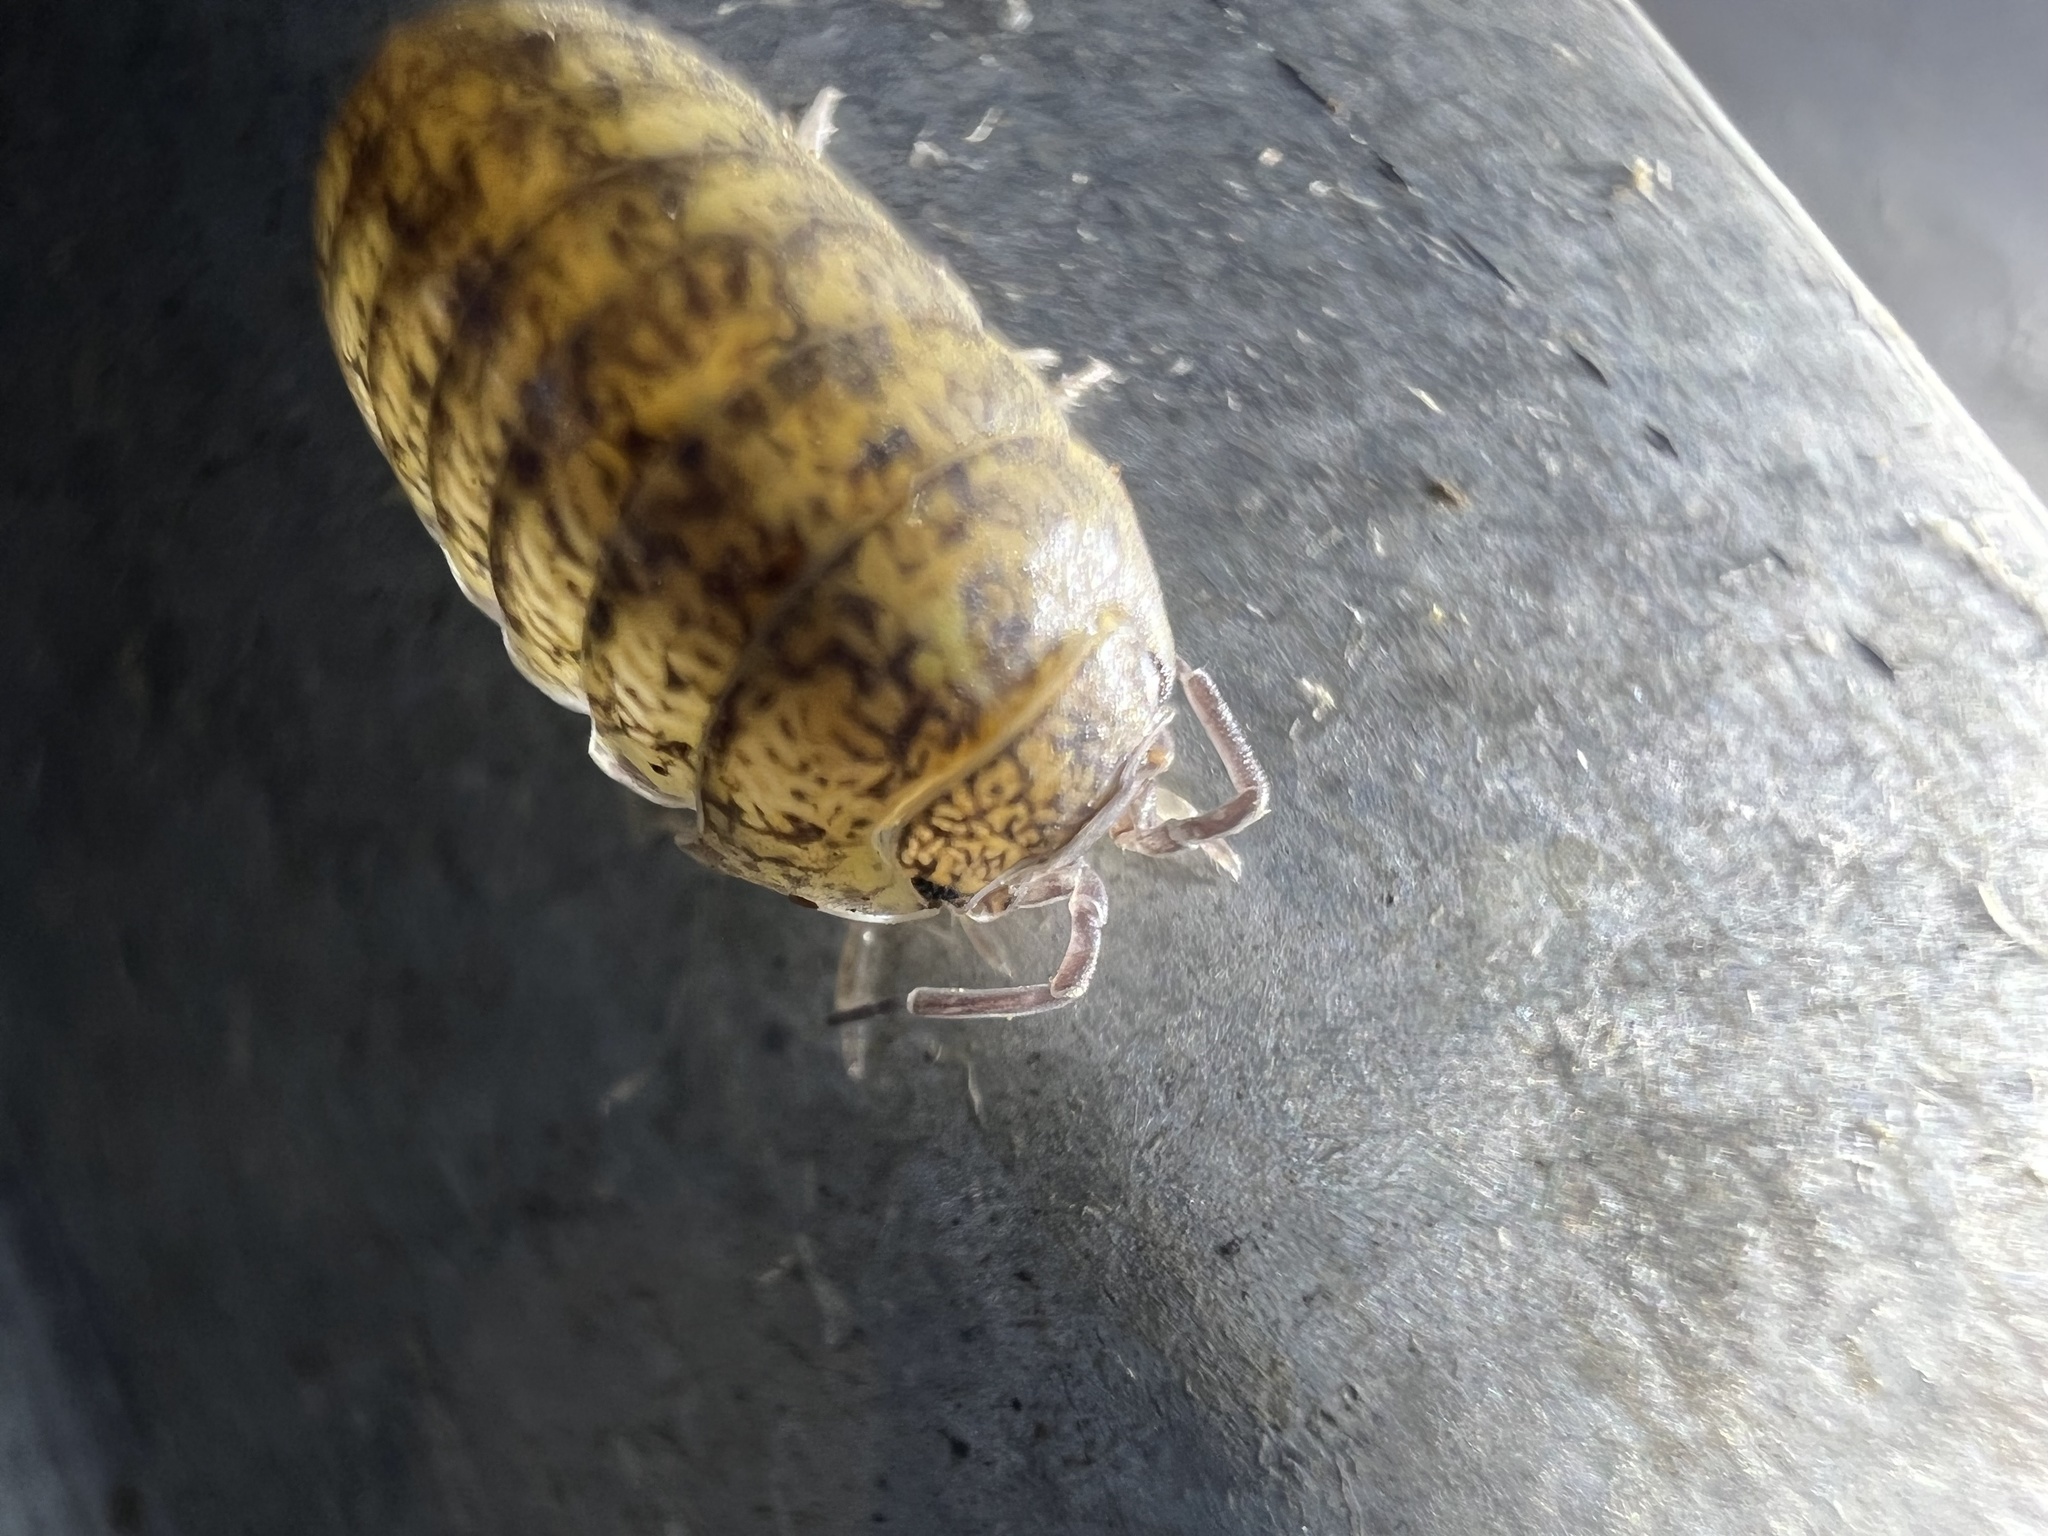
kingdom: Animalia
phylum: Arthropoda
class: Malacostraca
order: Isopoda
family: Armadillidiidae
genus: Armadillidium
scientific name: Armadillidium vulgare
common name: Common pill woodlouse
